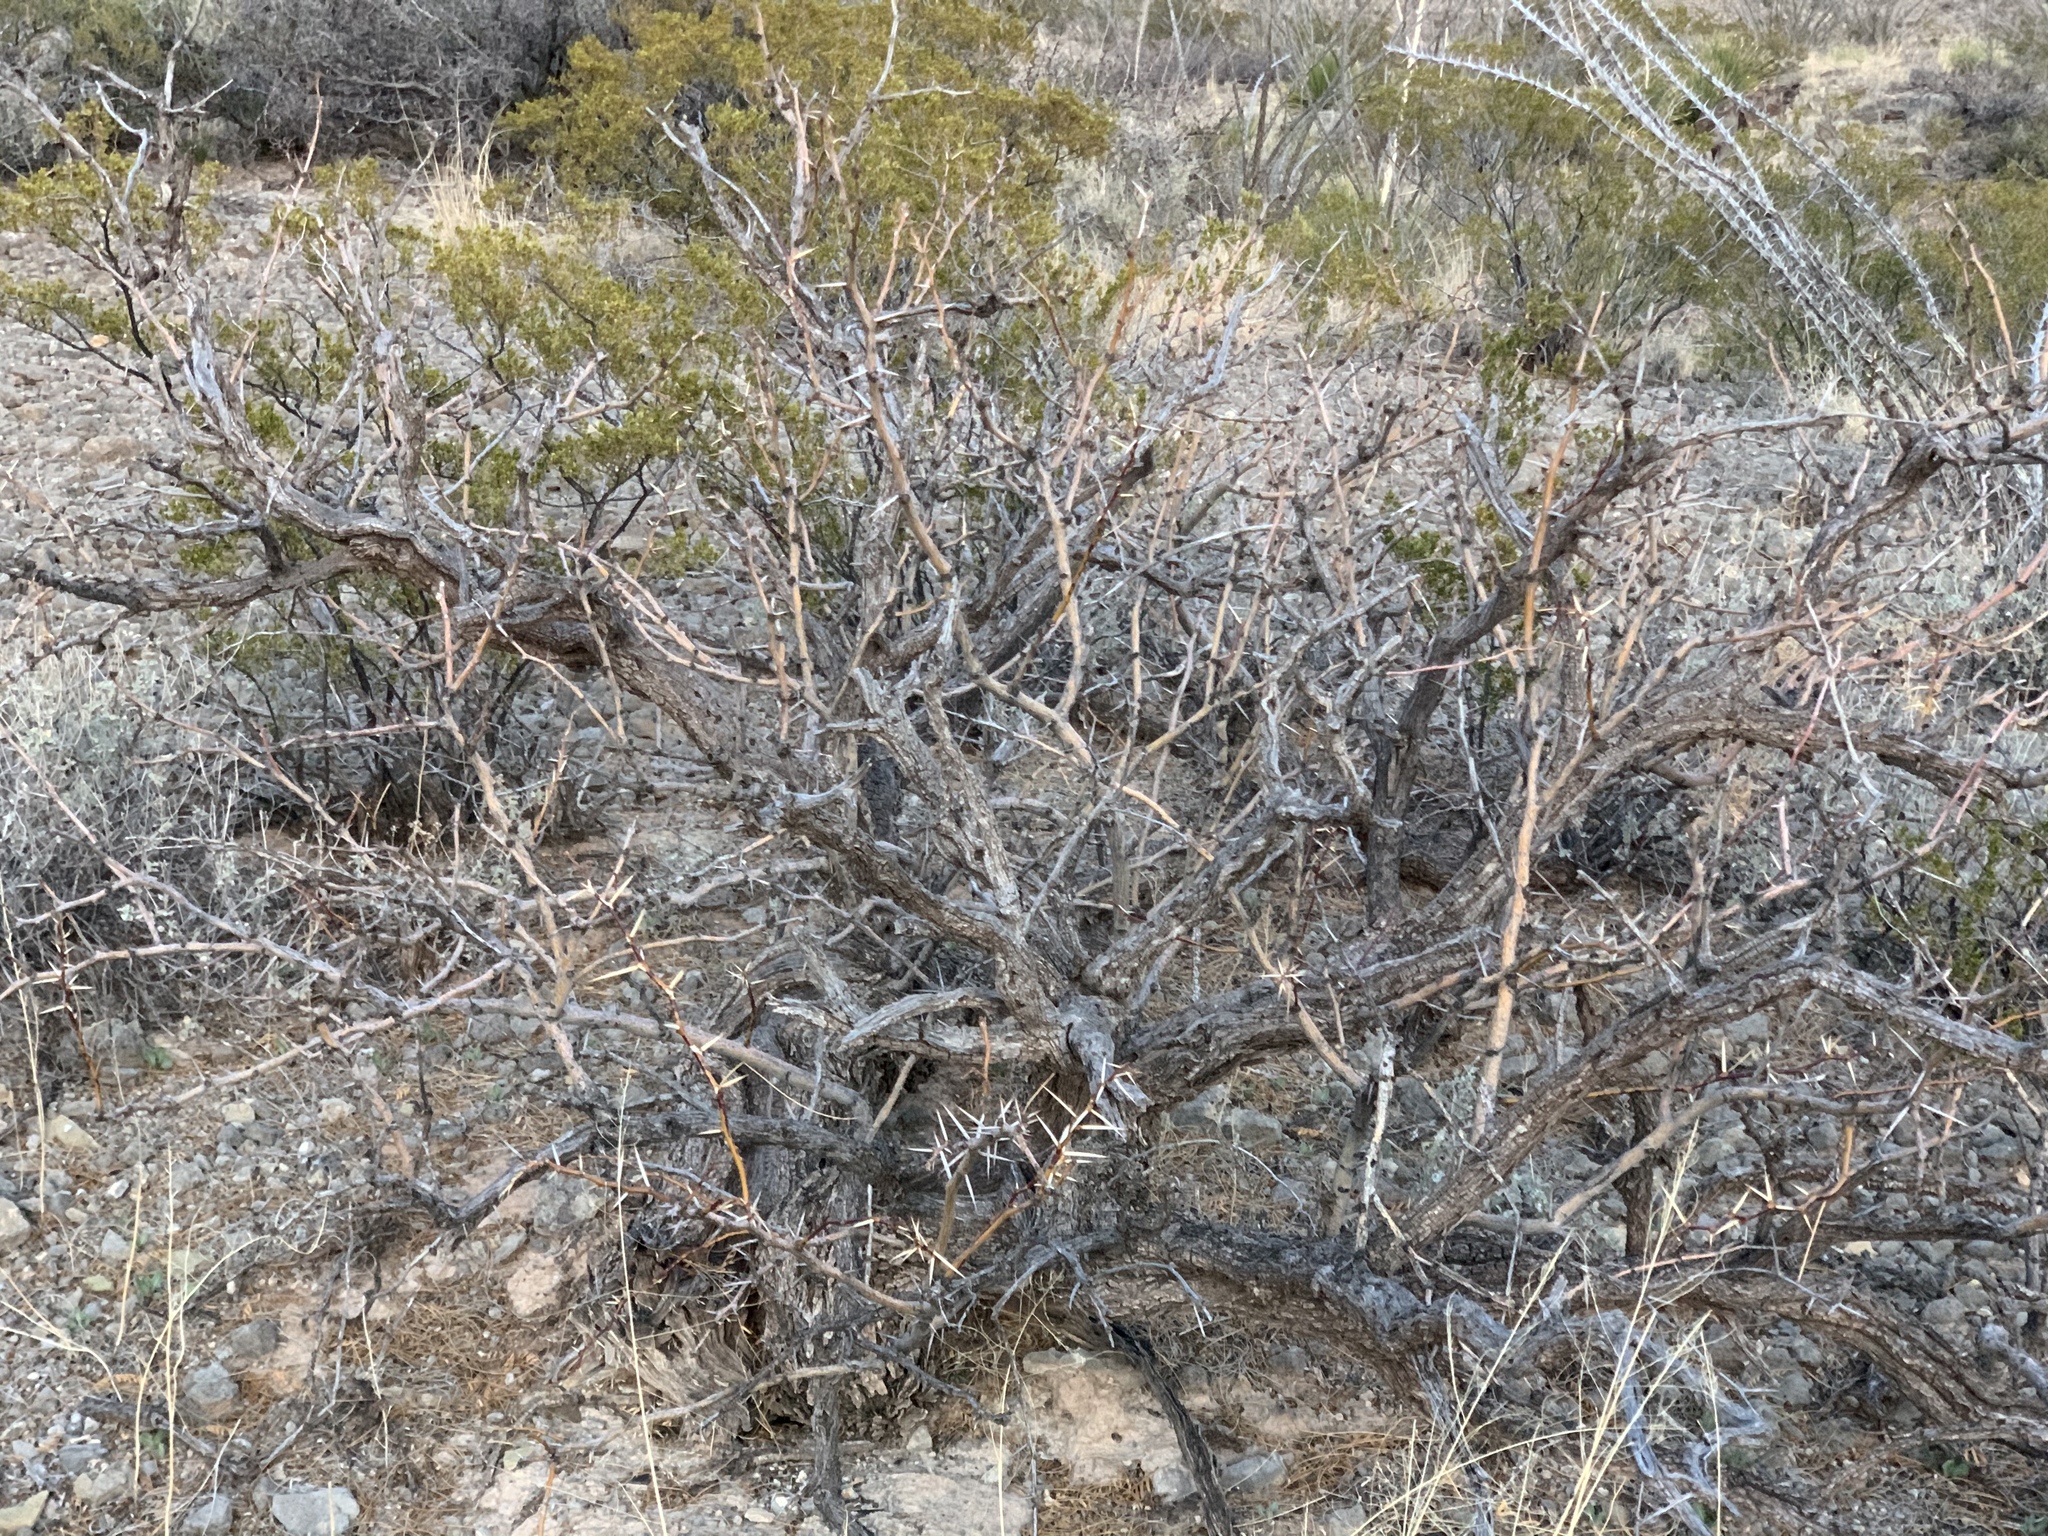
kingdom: Plantae
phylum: Tracheophyta
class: Magnoliopsida
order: Fabales
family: Fabaceae
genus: Prosopis
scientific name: Prosopis glandulosa
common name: Honey mesquite
